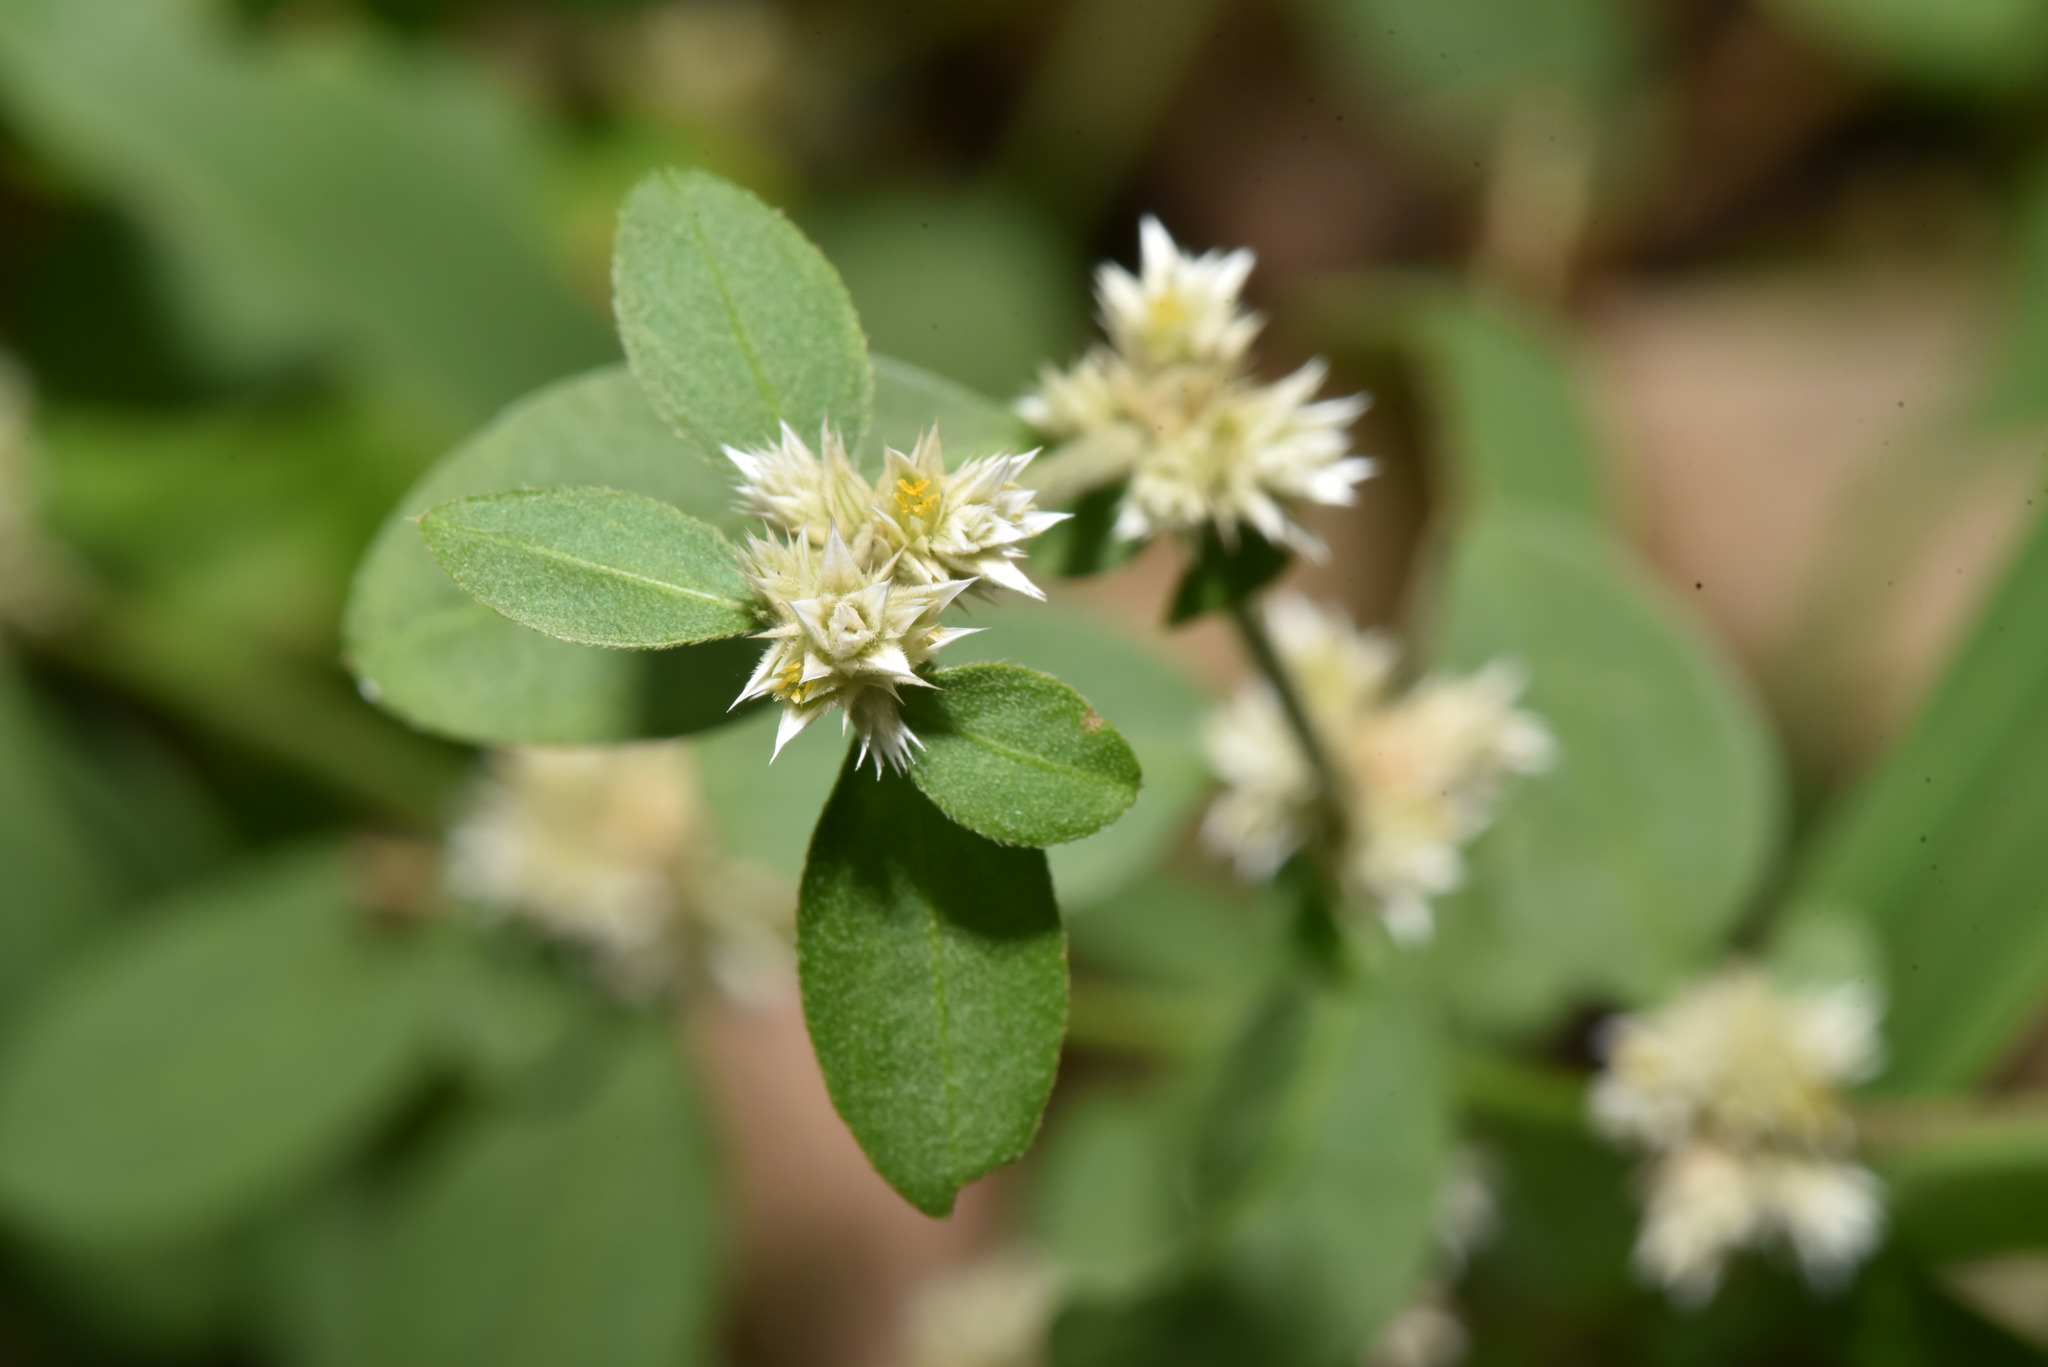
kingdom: Plantae
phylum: Tracheophyta
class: Magnoliopsida
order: Caryophyllales
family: Amaranthaceae
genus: Alternanthera
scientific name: Alternanthera ficoidea
